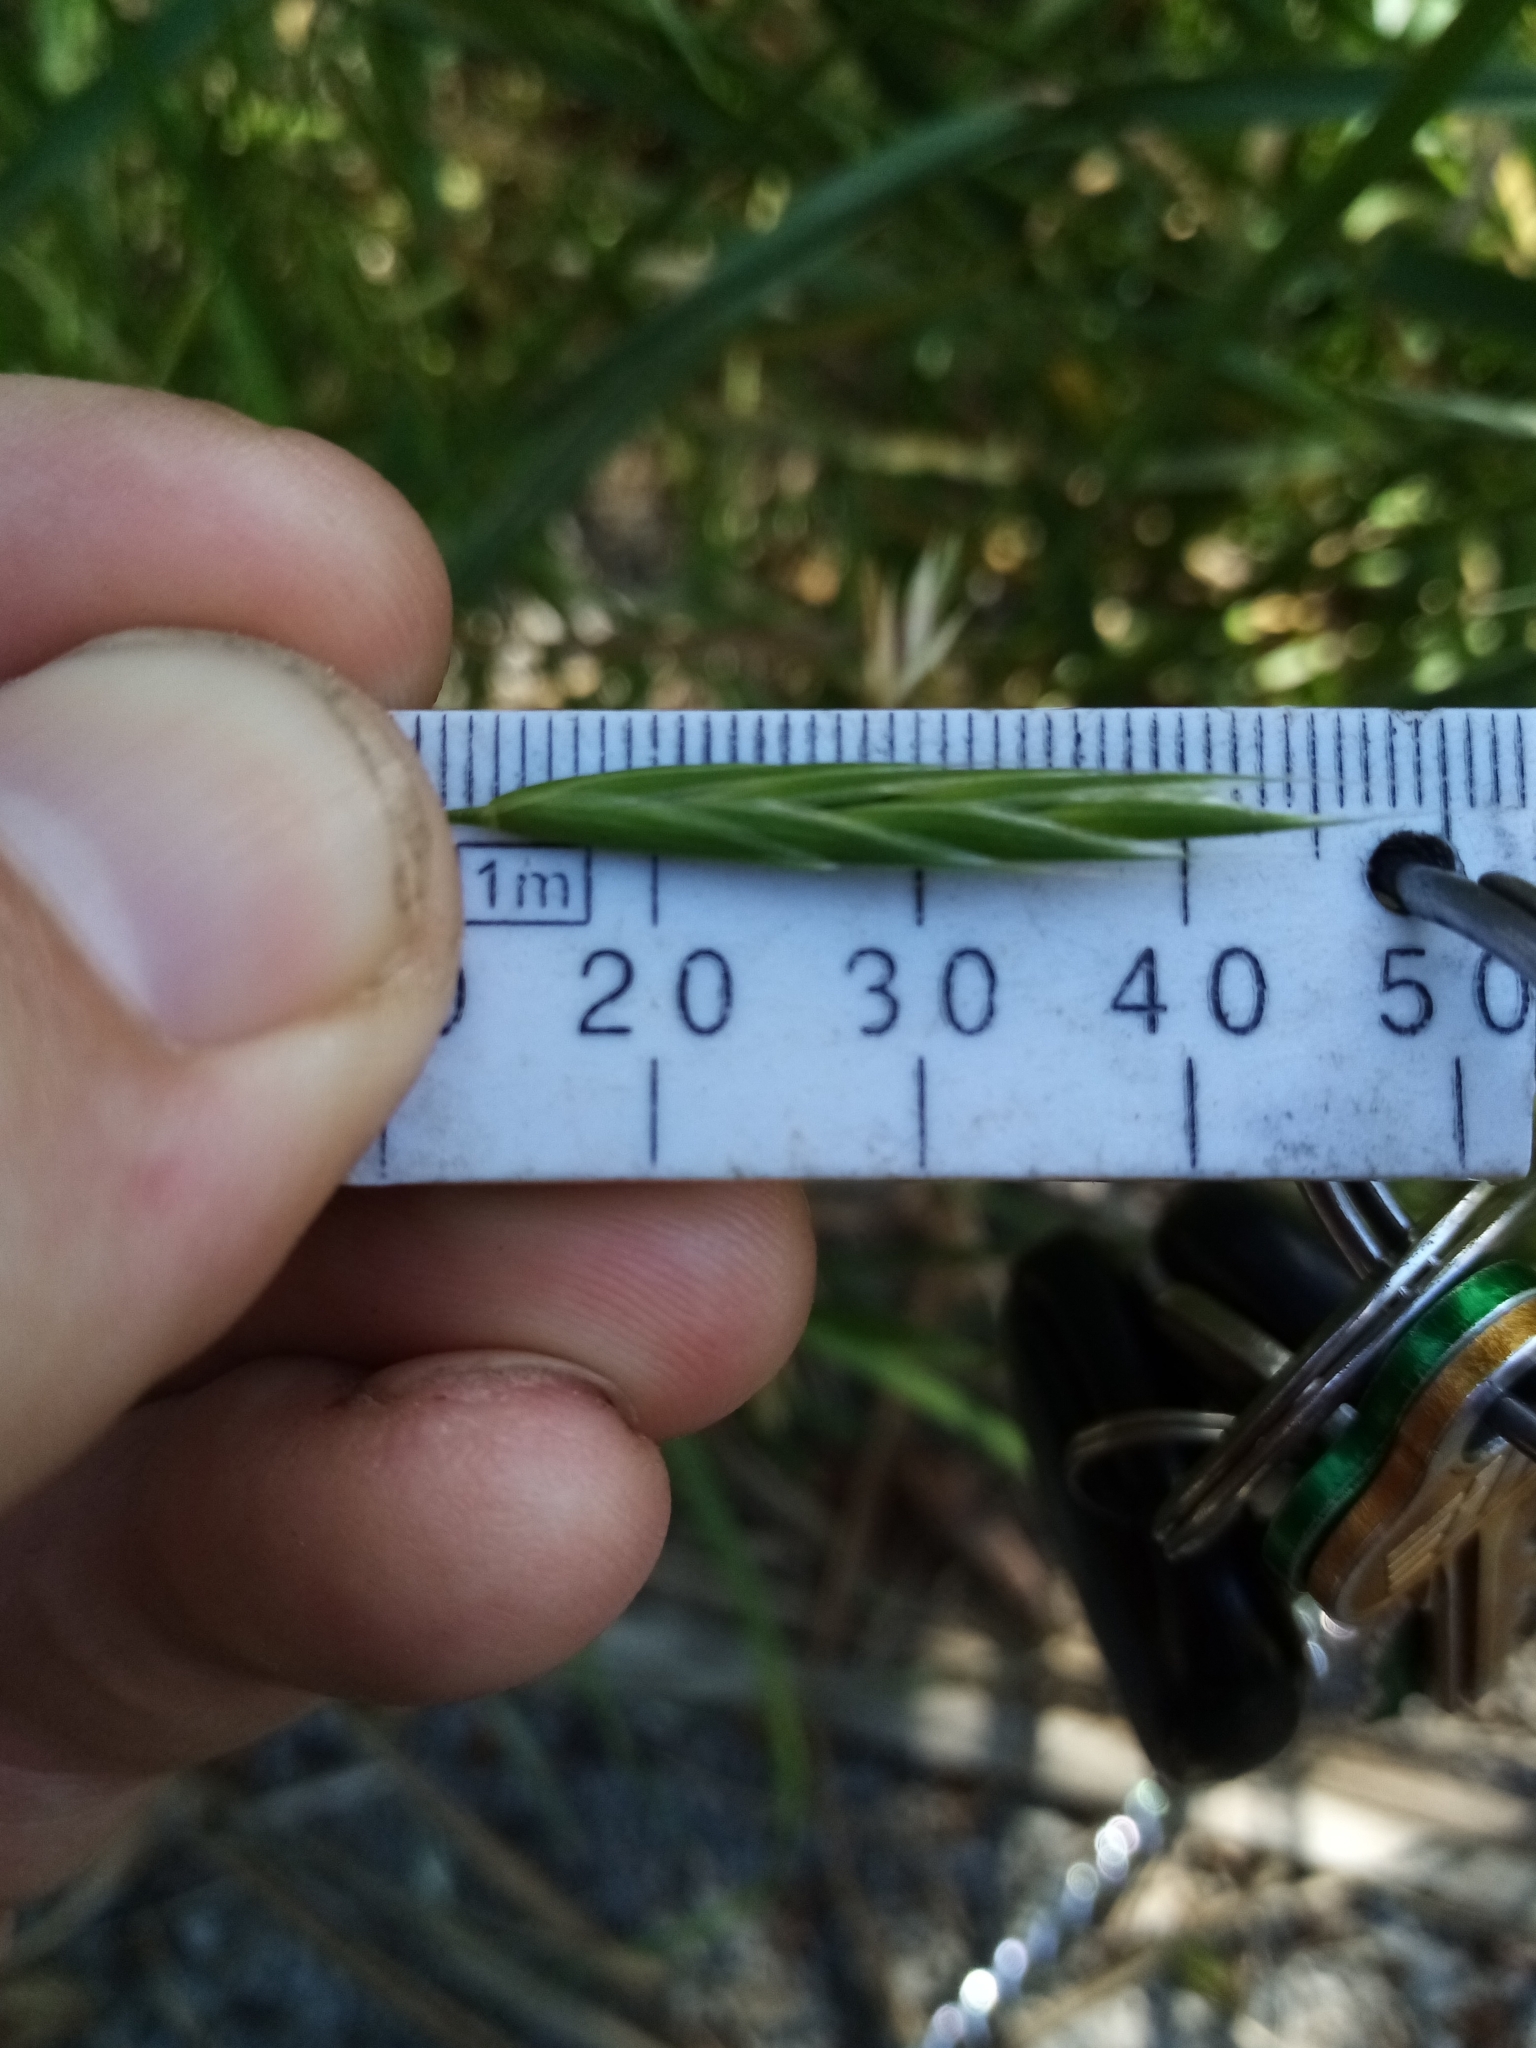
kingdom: Plantae
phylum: Tracheophyta
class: Liliopsida
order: Poales
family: Poaceae
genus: Bromus
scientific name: Bromus sitchensis
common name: Sitka brome
